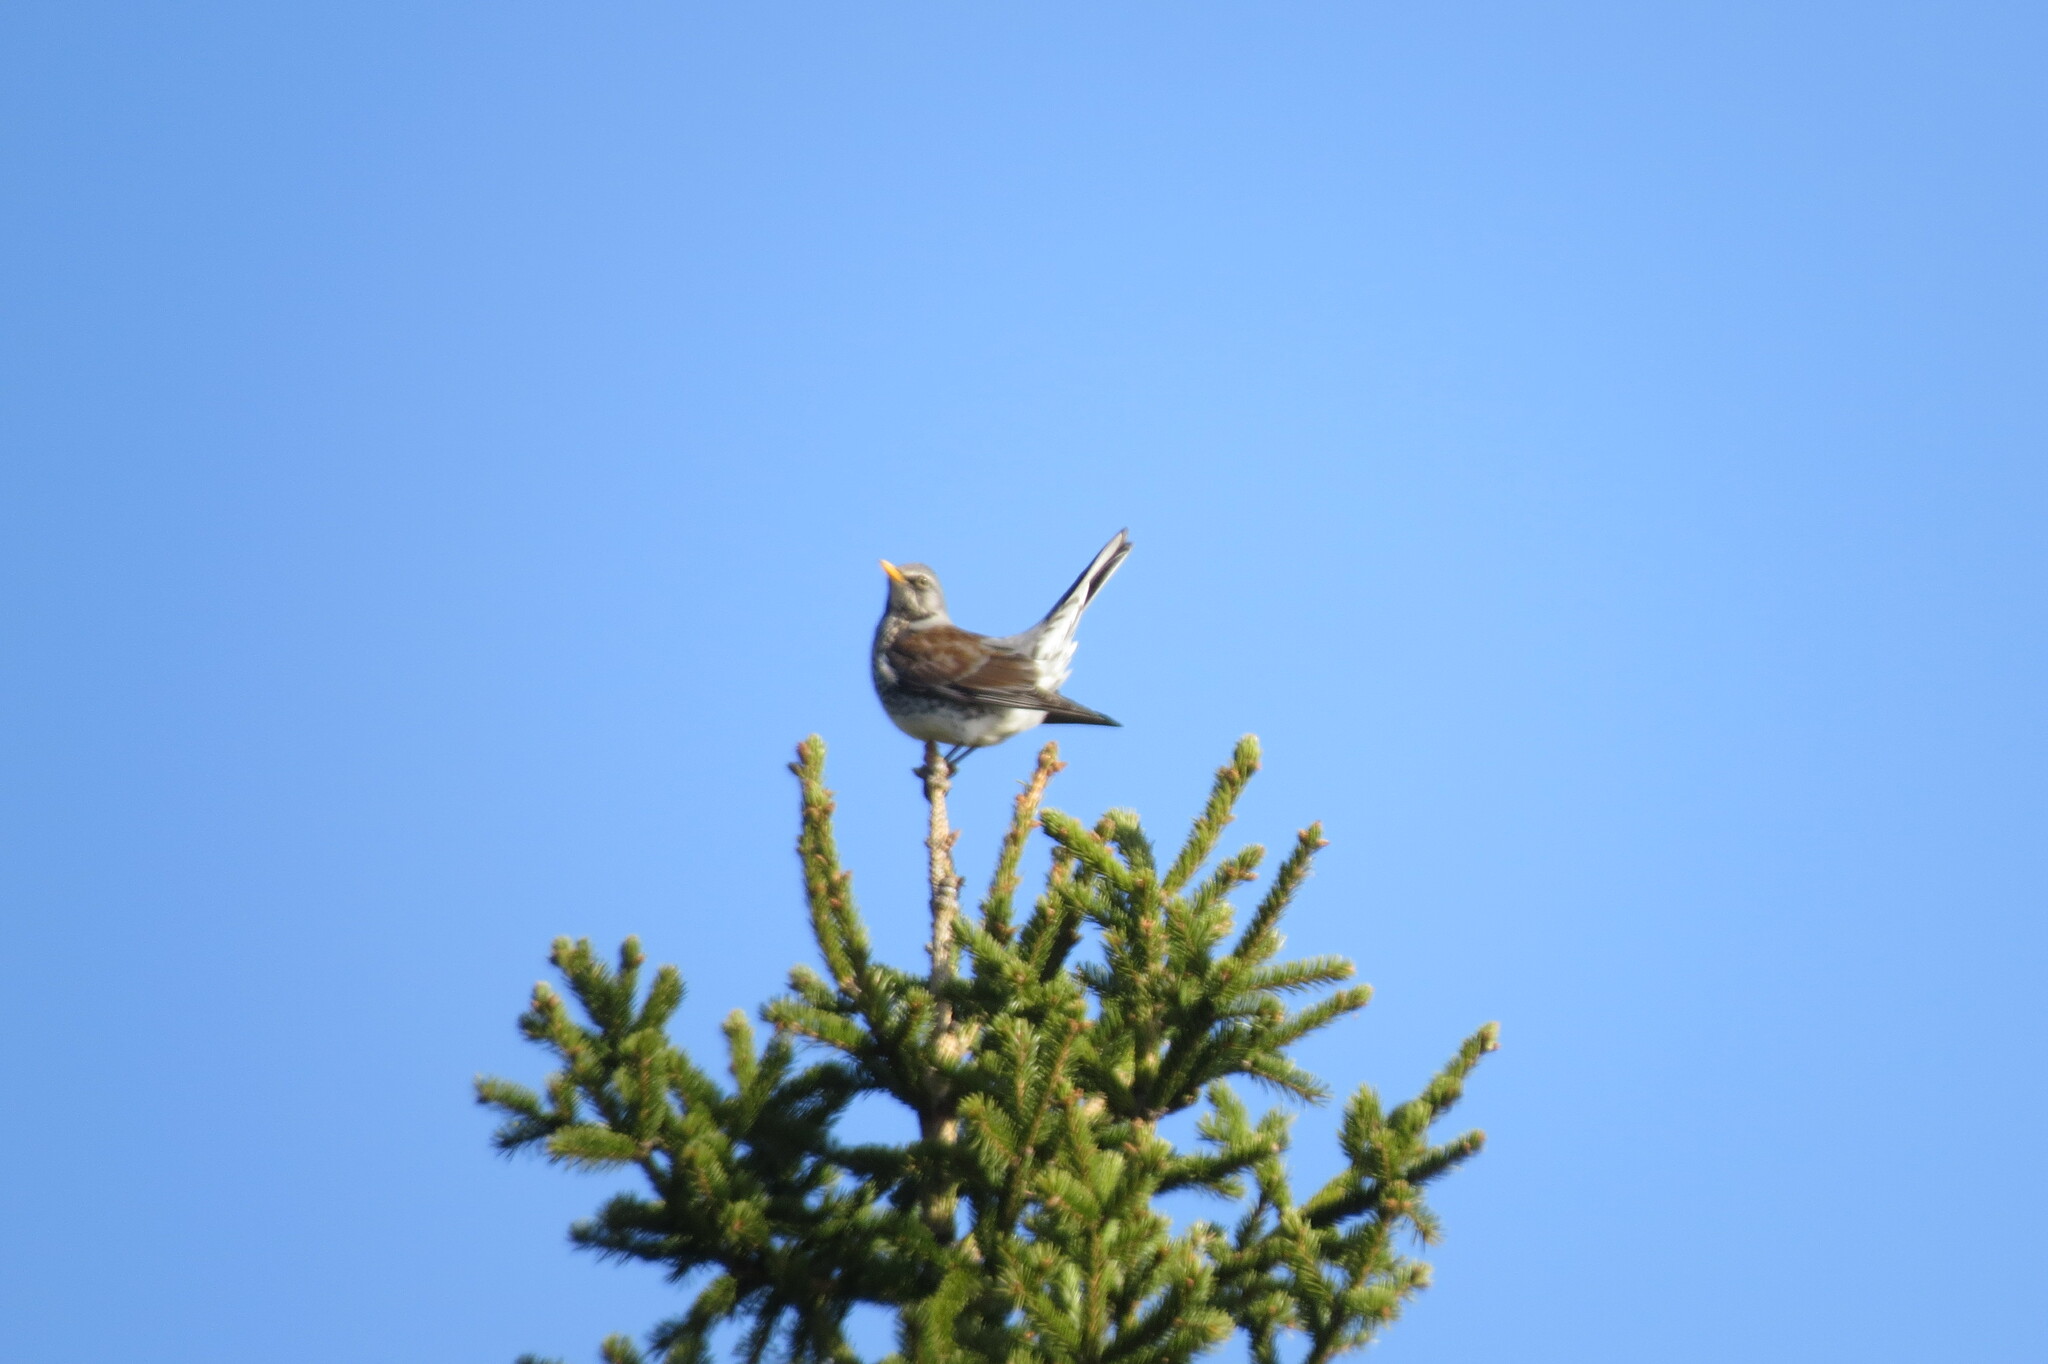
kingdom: Animalia
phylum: Chordata
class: Aves
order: Passeriformes
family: Turdidae
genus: Turdus
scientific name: Turdus pilaris
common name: Fieldfare
